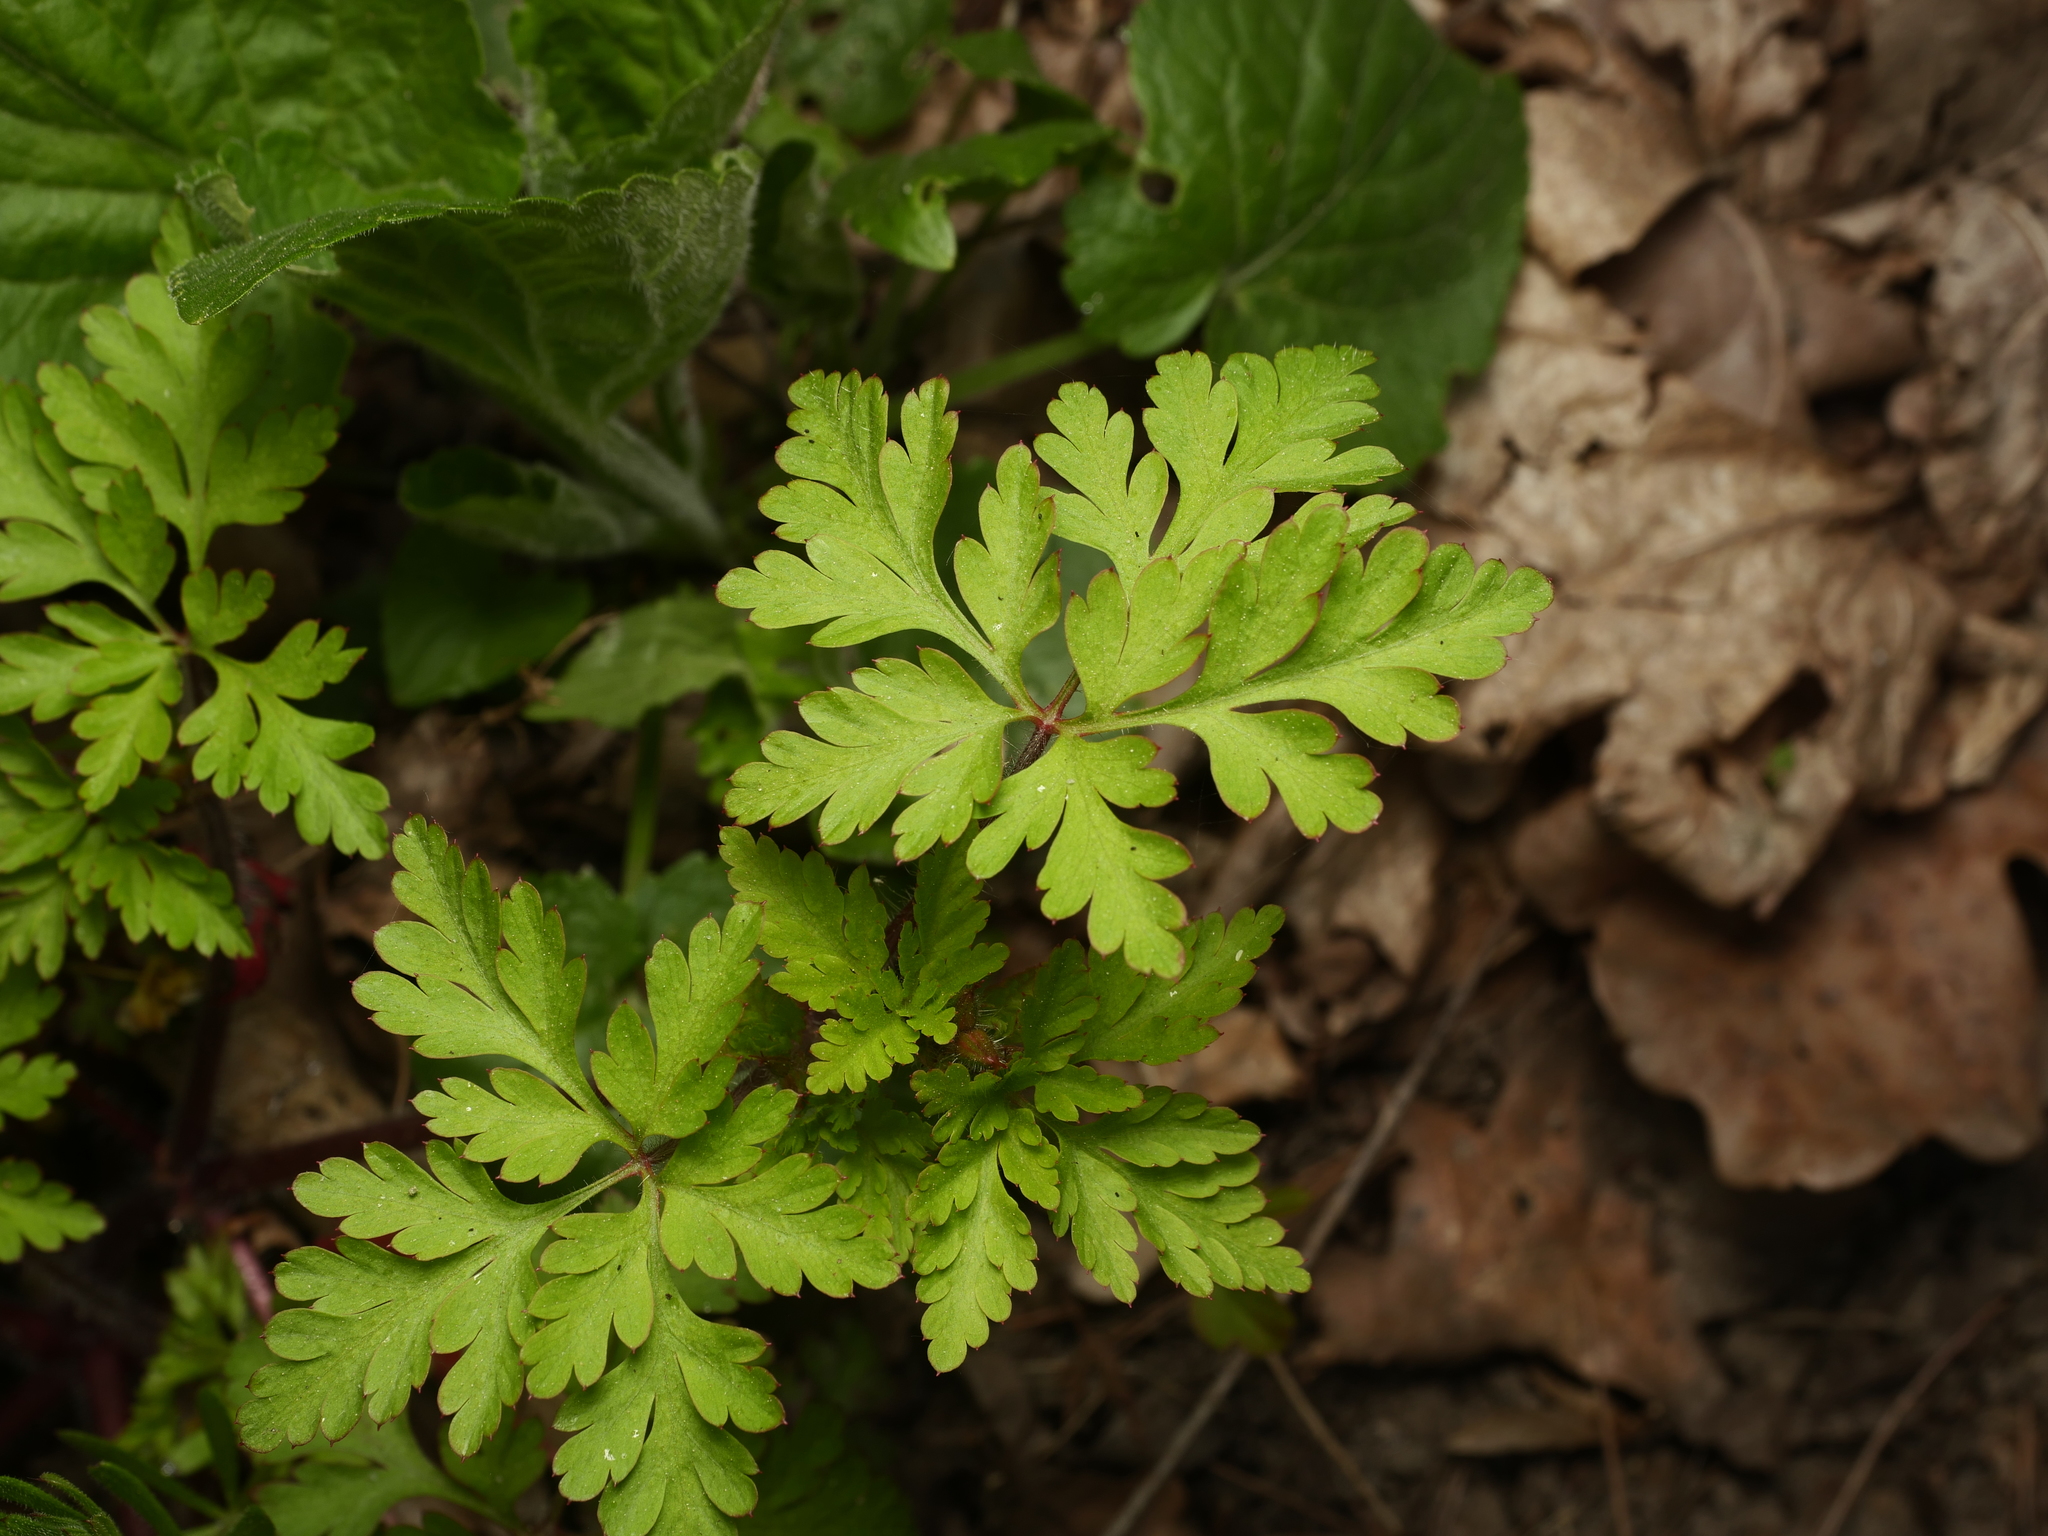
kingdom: Plantae
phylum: Tracheophyta
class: Magnoliopsida
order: Geraniales
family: Geraniaceae
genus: Geranium
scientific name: Geranium robertianum
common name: Herb-robert
